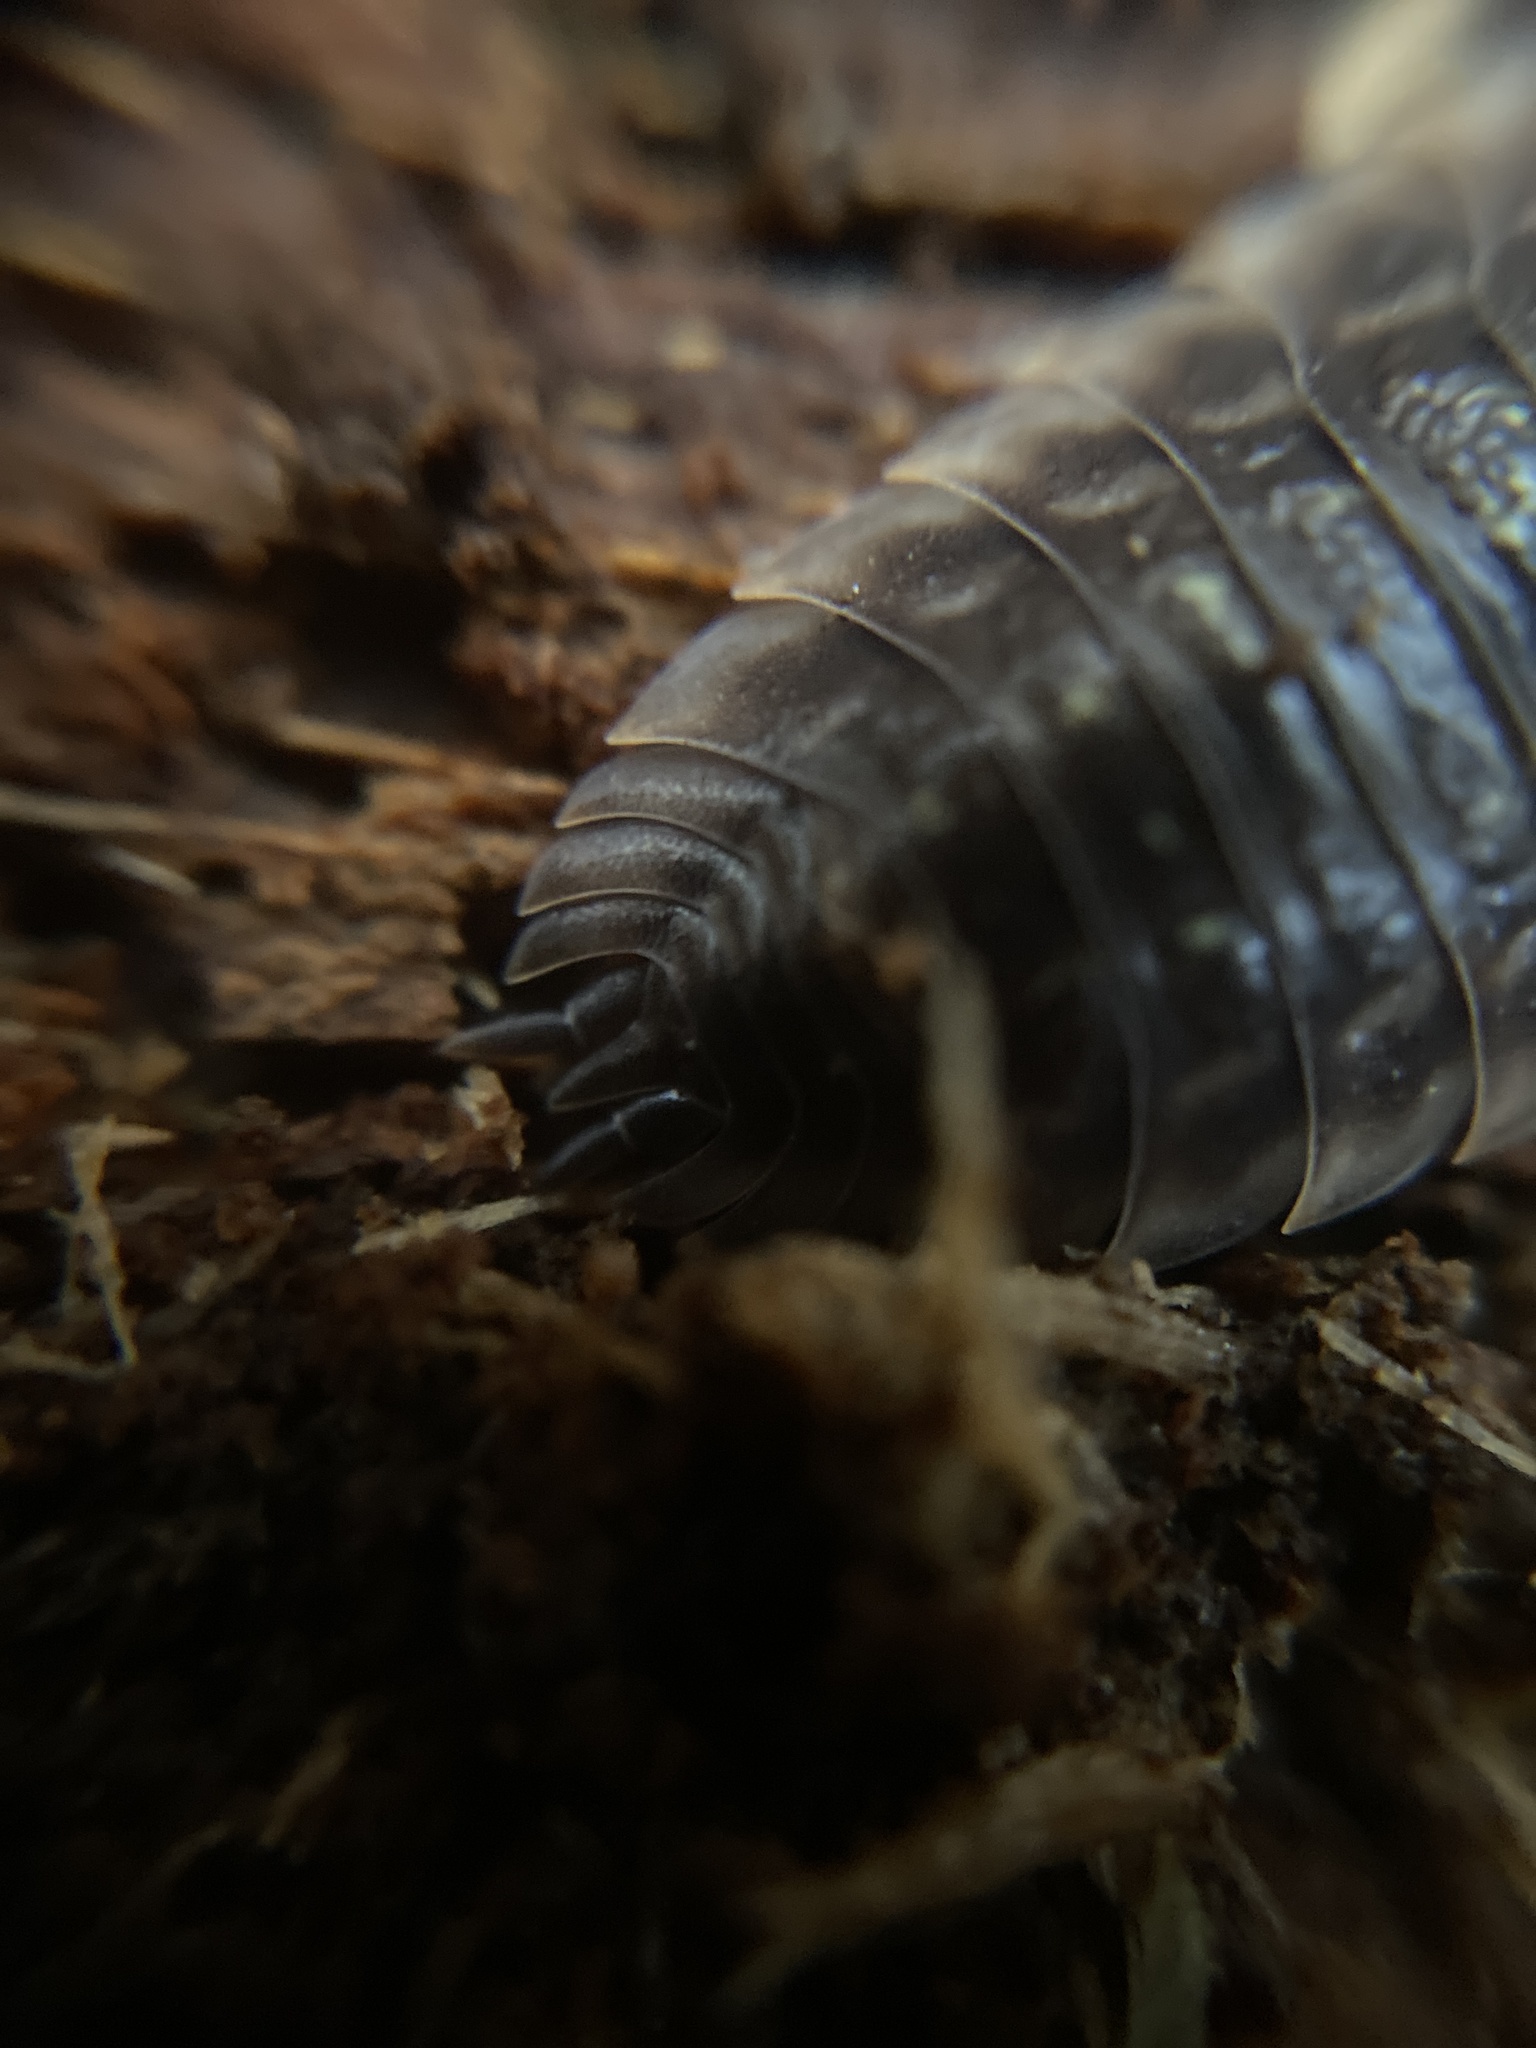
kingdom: Animalia
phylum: Arthropoda
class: Malacostraca
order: Isopoda
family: Oniscidae
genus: Oniscus
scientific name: Oniscus asellus
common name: Common shiny woodlouse
